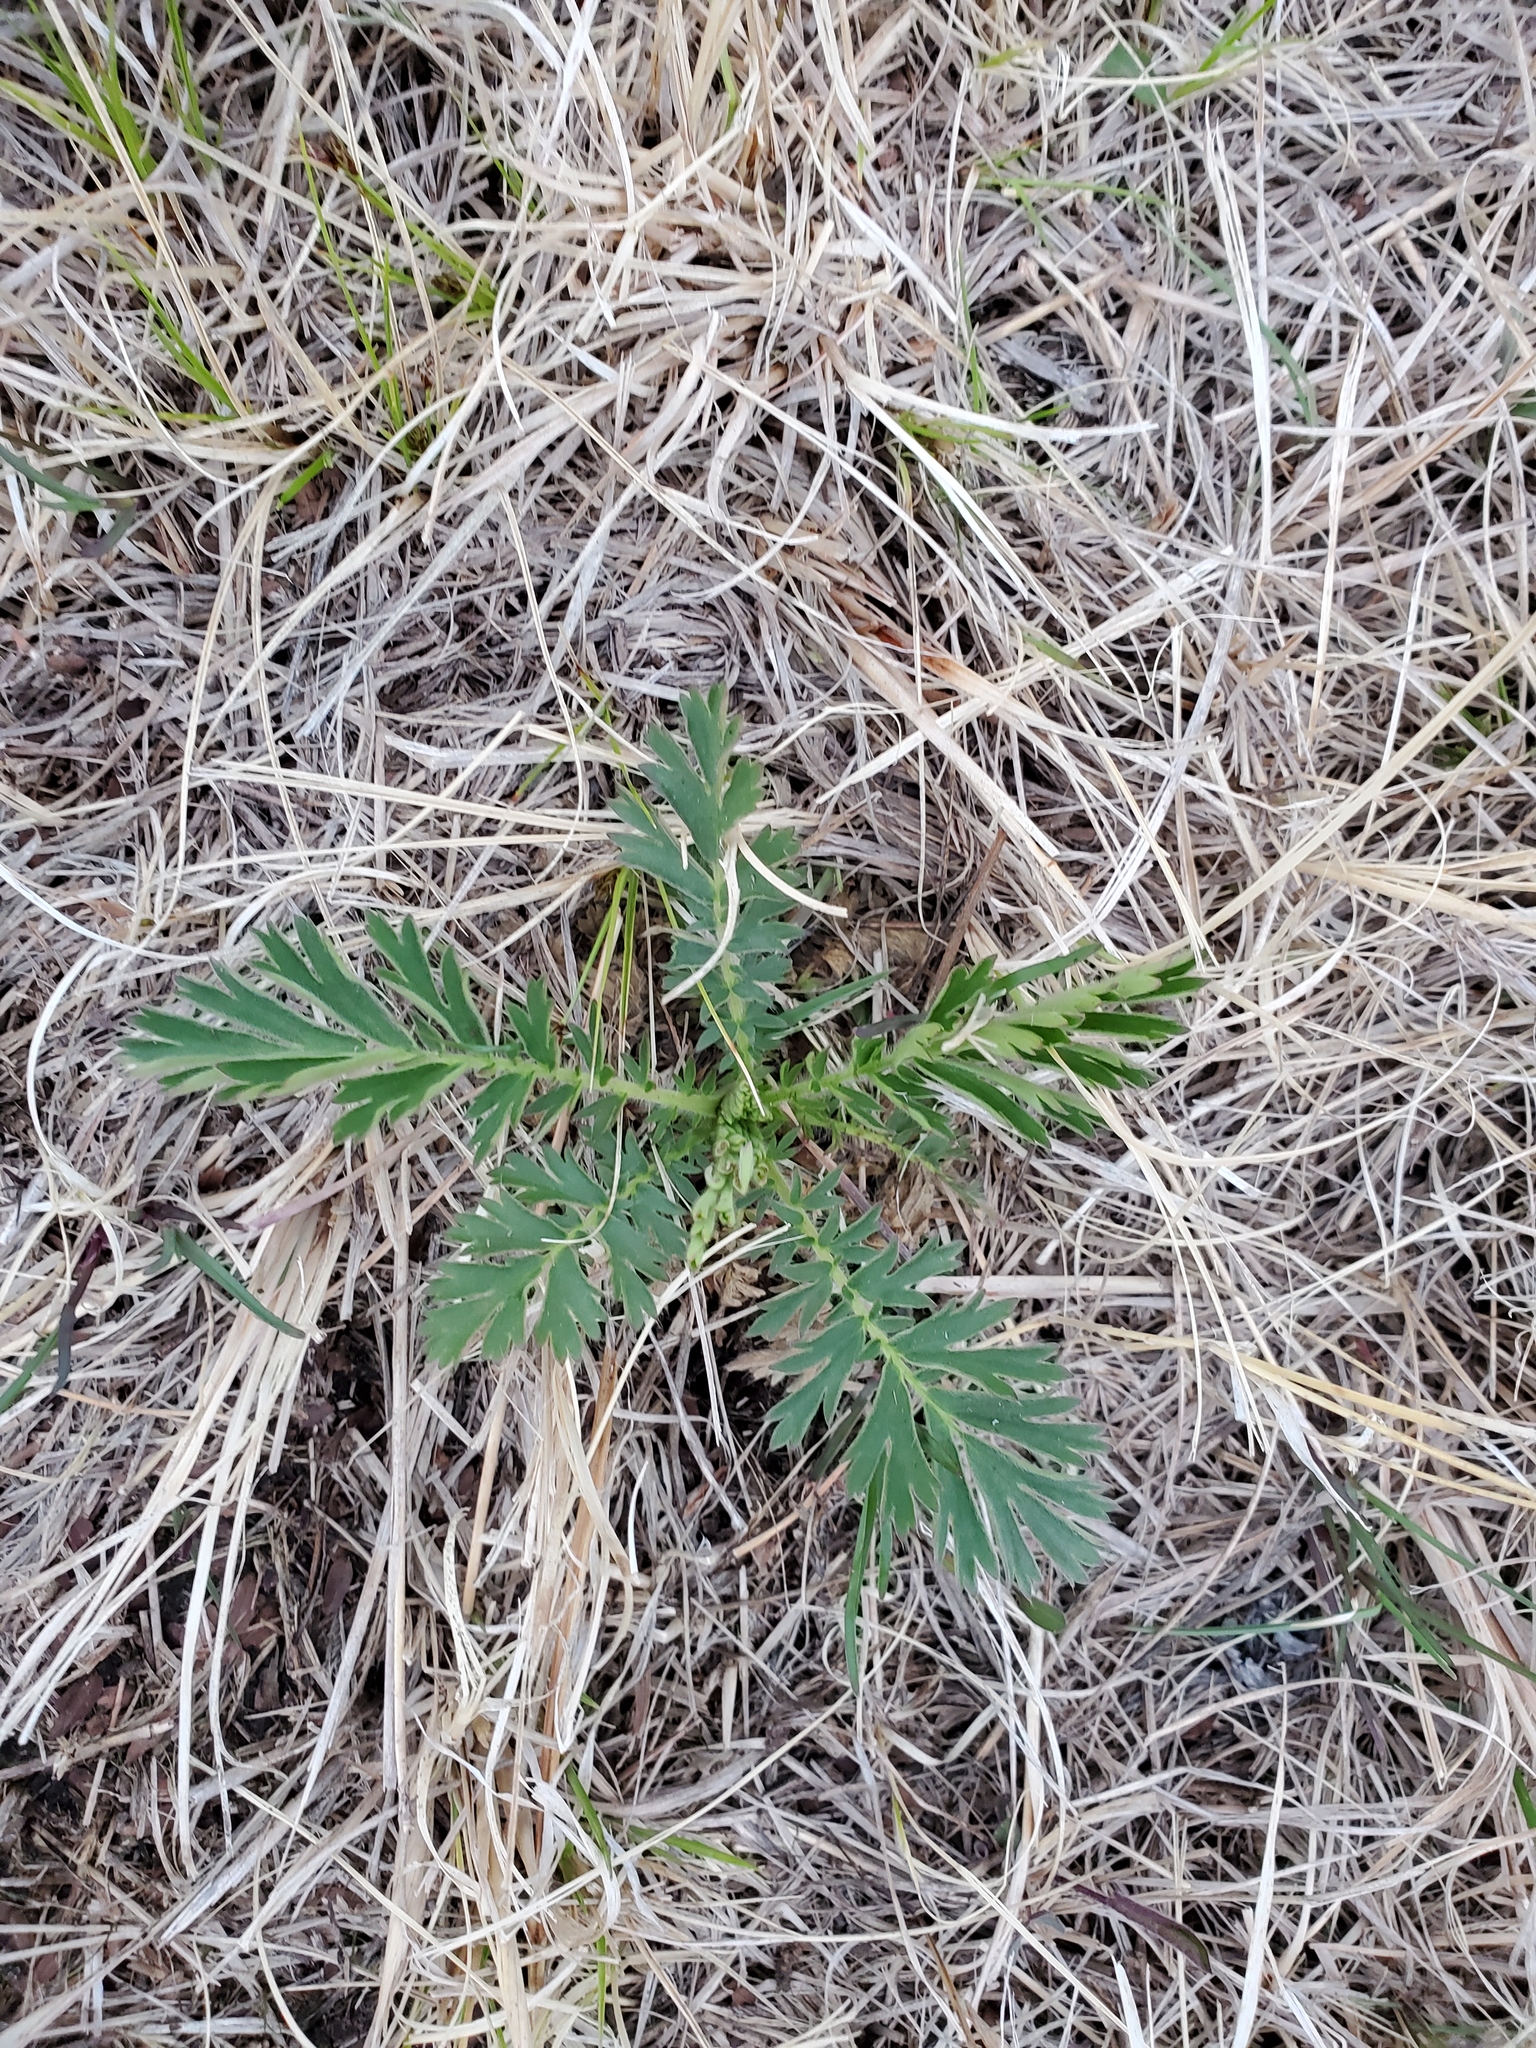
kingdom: Plantae
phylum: Tracheophyta
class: Magnoliopsida
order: Rosales
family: Rosaceae
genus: Geum
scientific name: Geum triflorum
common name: Old man's whiskers
